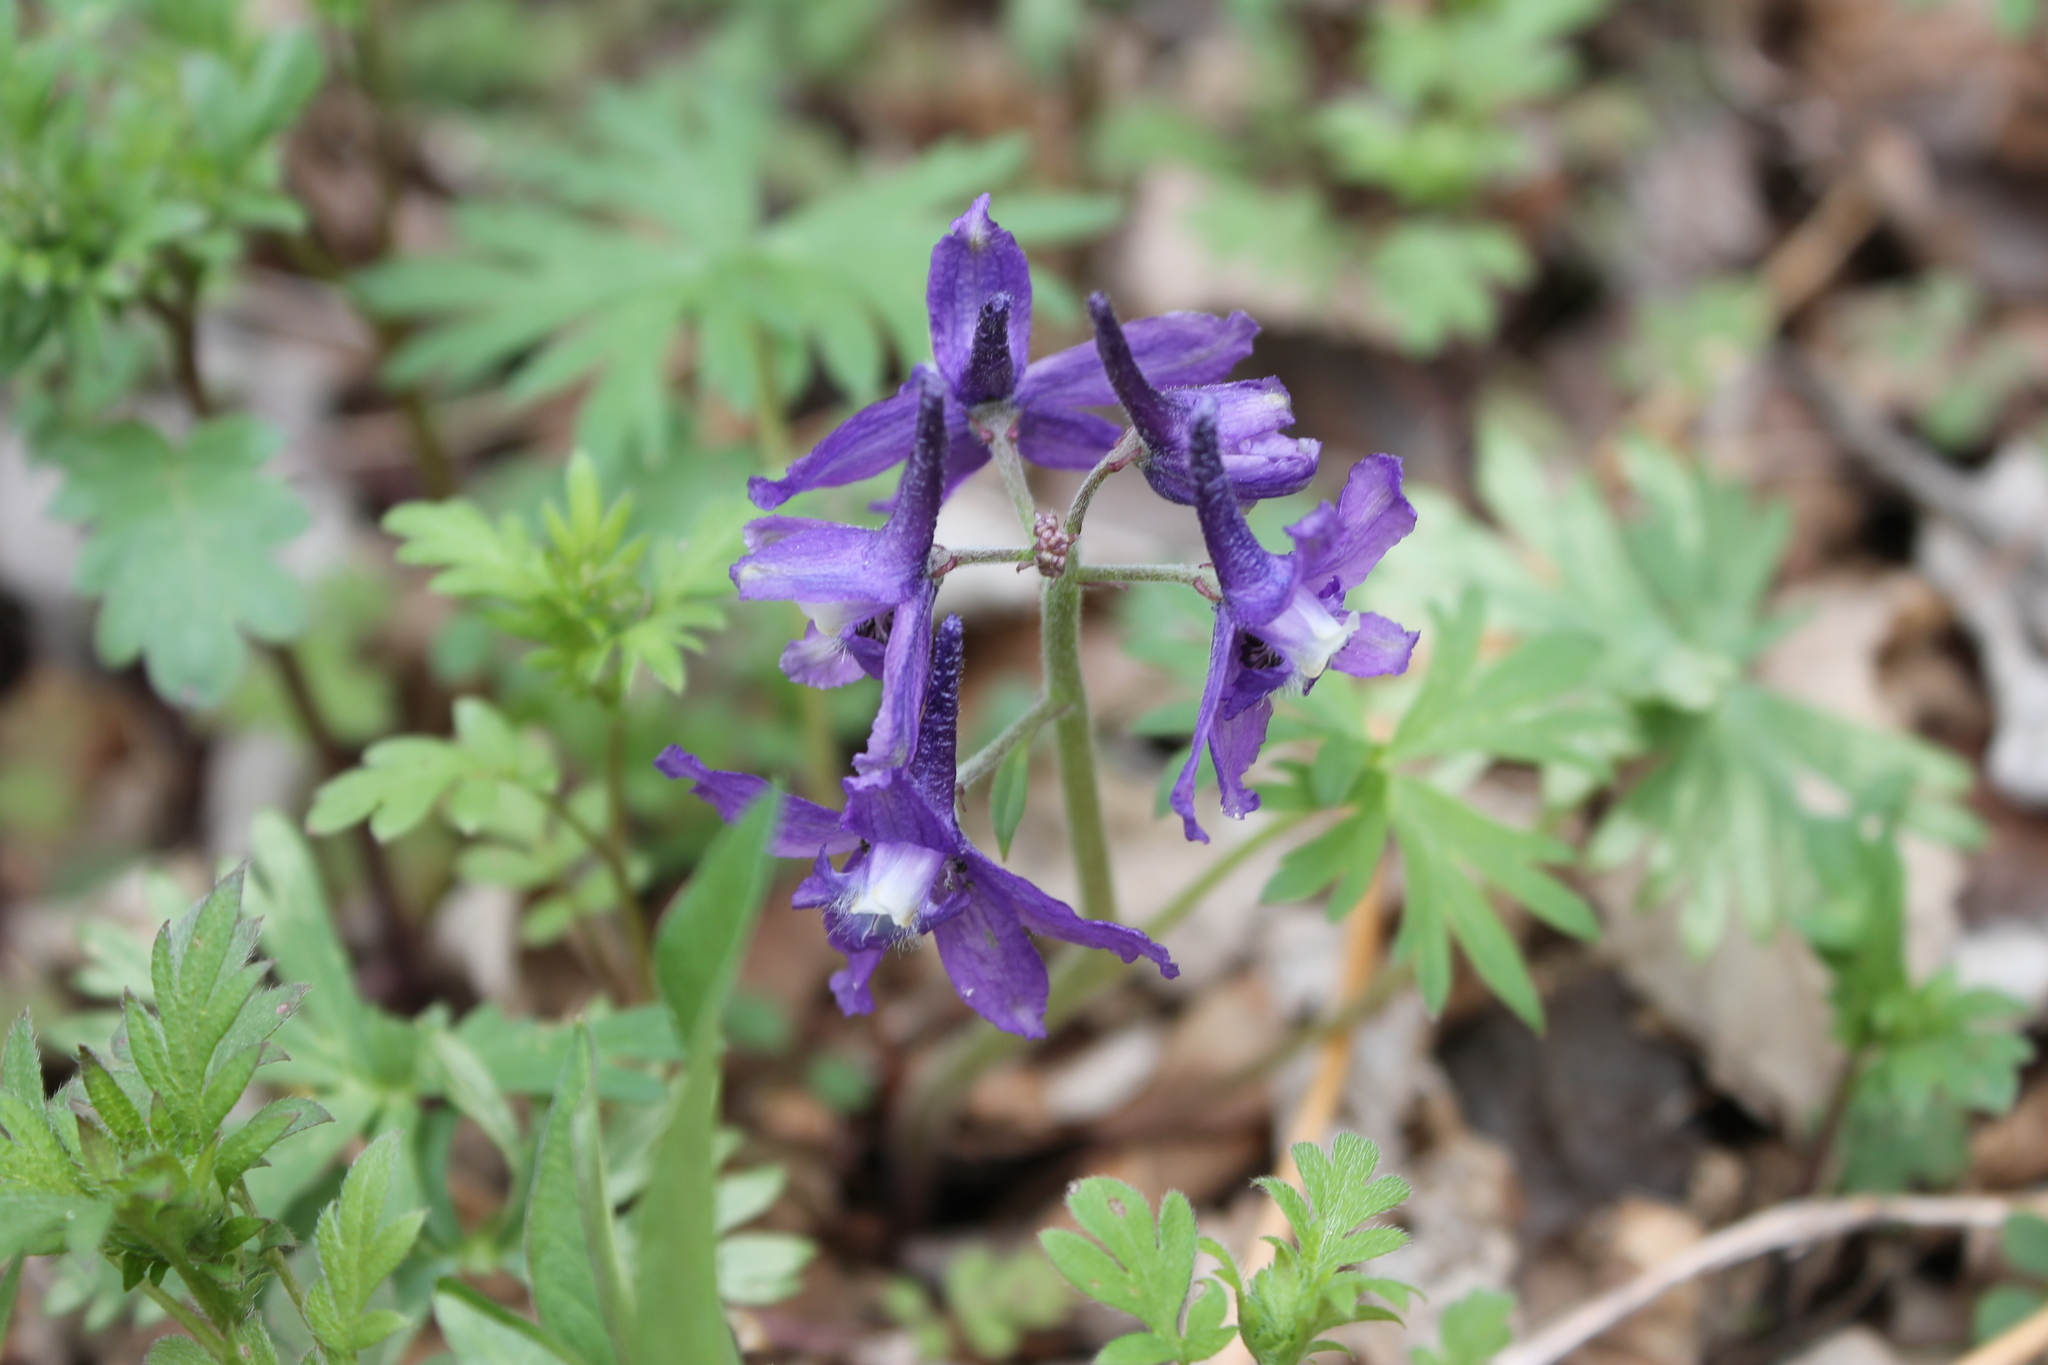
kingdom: Plantae
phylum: Tracheophyta
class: Magnoliopsida
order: Ranunculales
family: Ranunculaceae
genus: Delphinium
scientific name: Delphinium tricorne
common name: Dwarf larkspur
